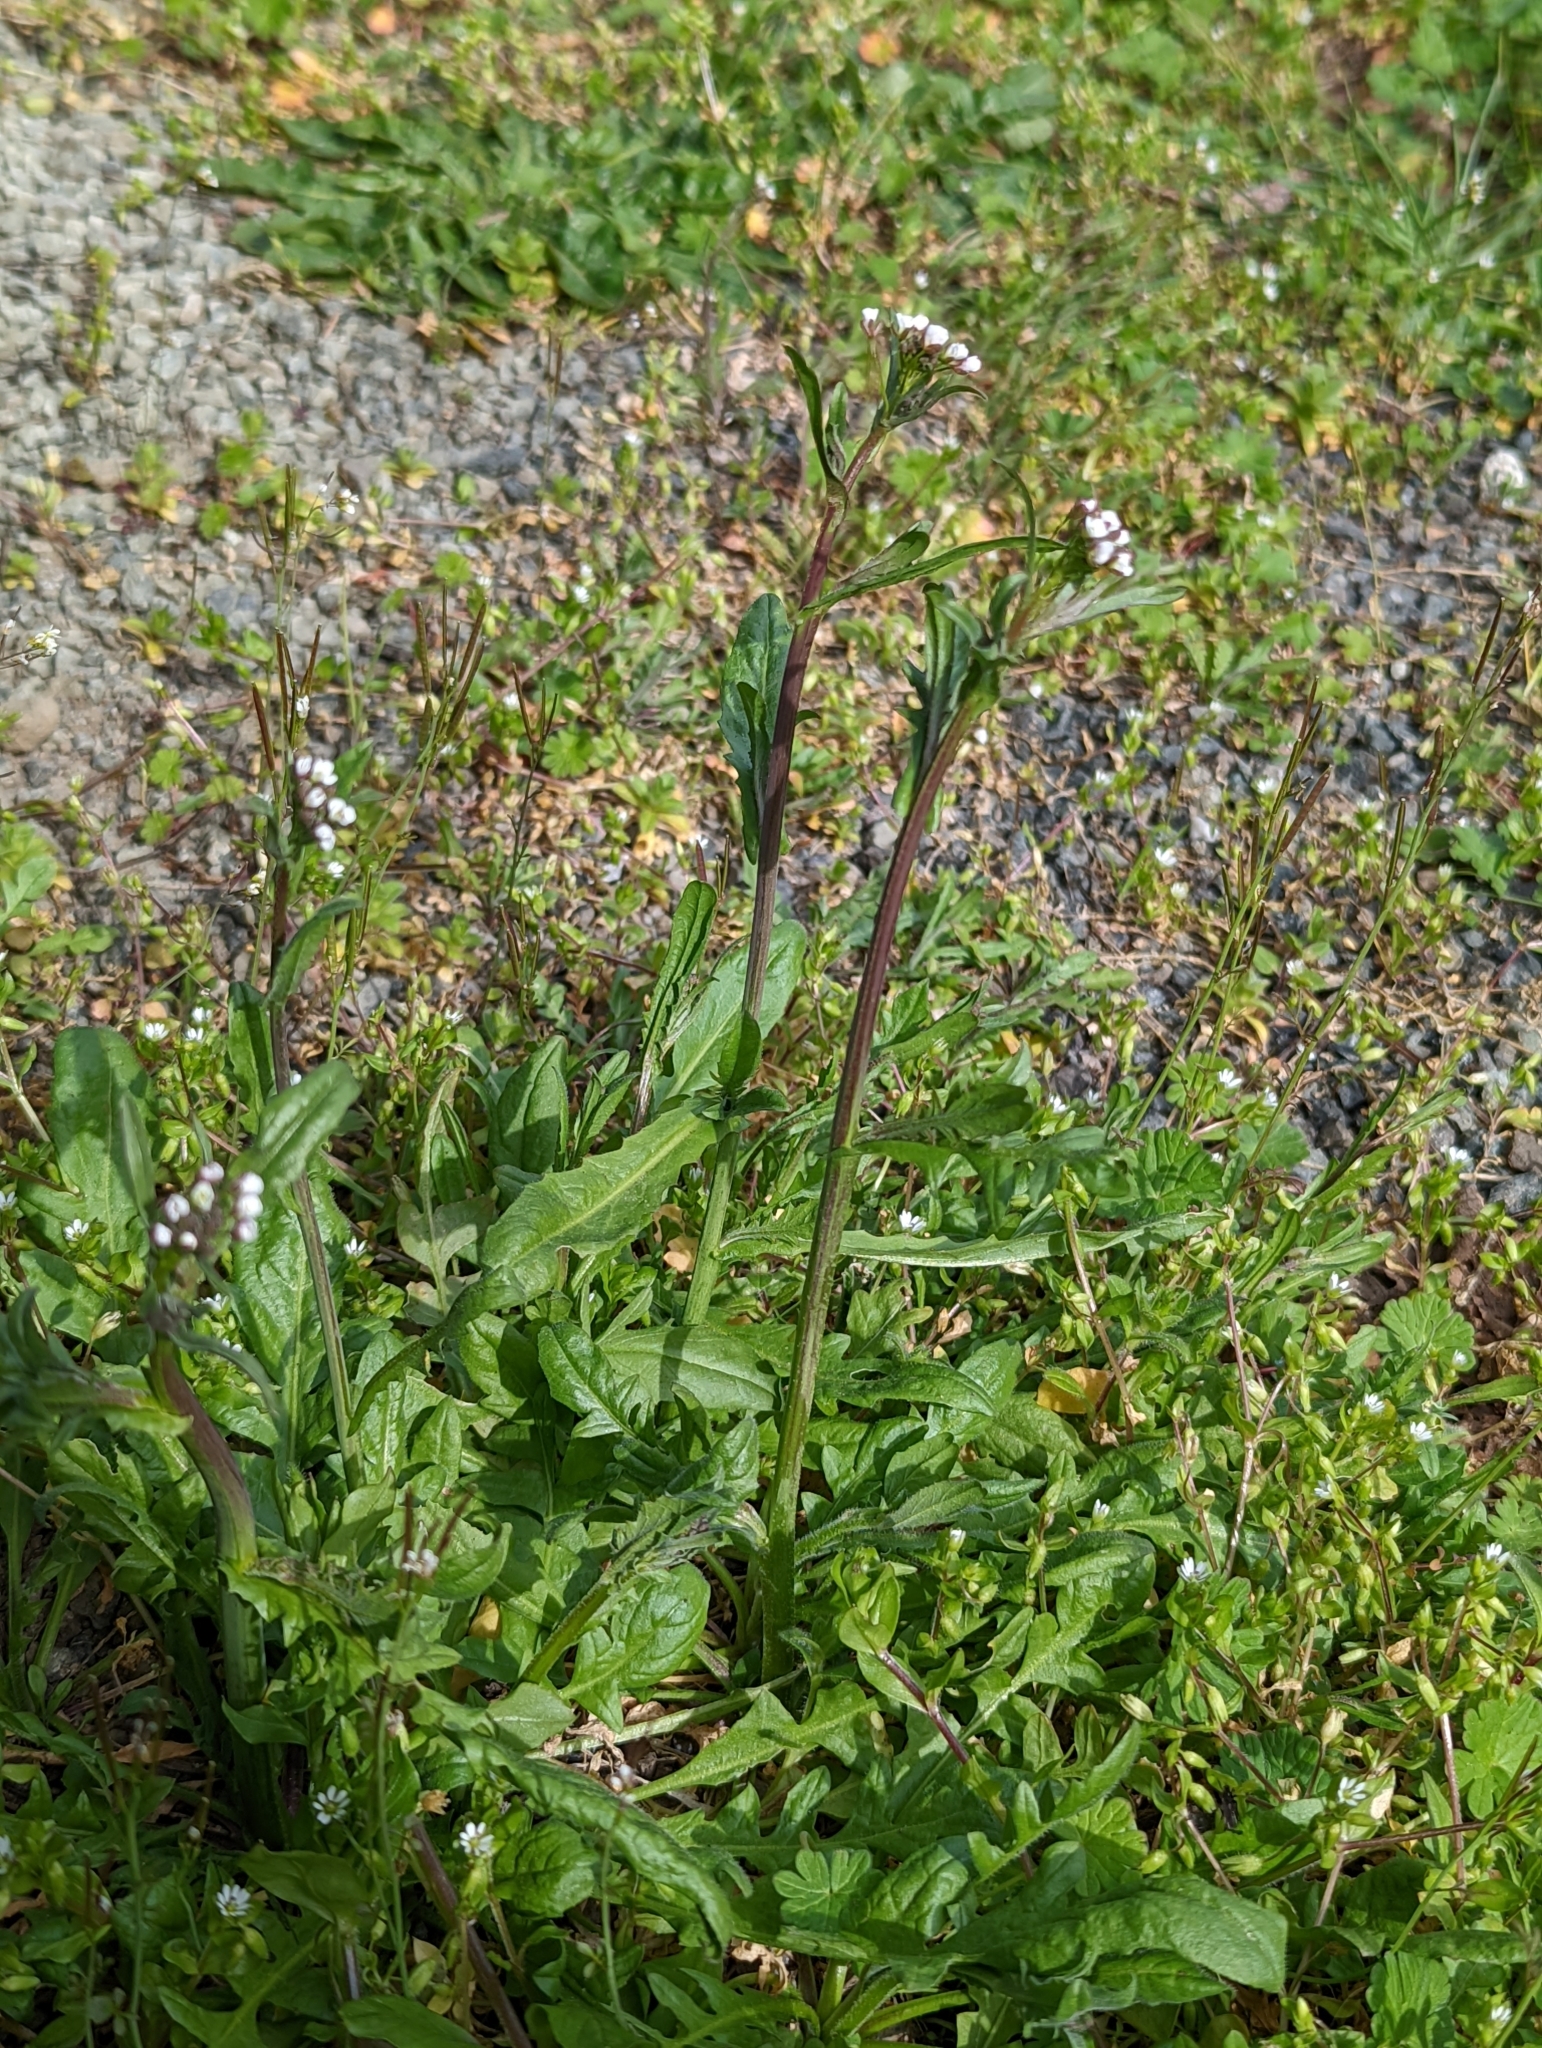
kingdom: Plantae
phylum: Tracheophyta
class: Magnoliopsida
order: Brassicales
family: Brassicaceae
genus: Capsella
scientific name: Capsella bursa-pastoris
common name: Shepherd's purse
